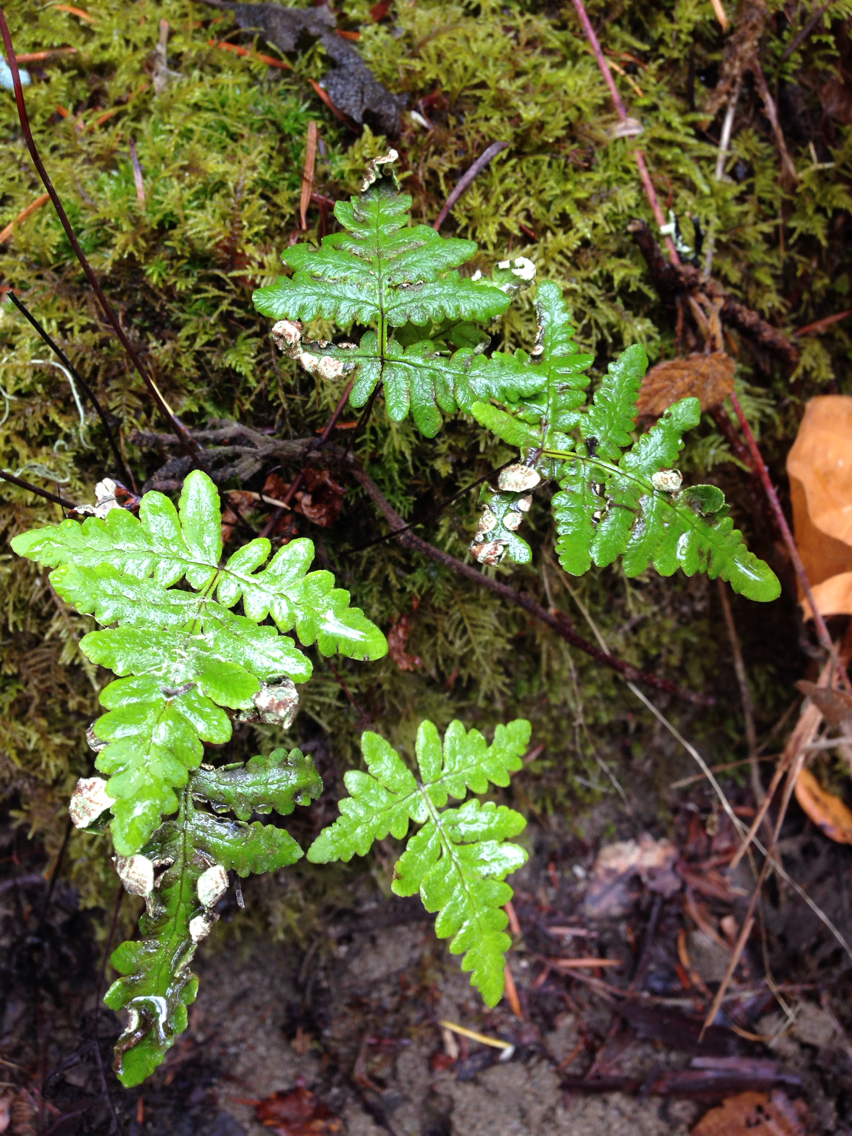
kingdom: Plantae
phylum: Tracheophyta
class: Polypodiopsida
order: Polypodiales
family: Pteridaceae
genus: Pentagramma
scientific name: Pentagramma triangularis
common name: Gold fern
